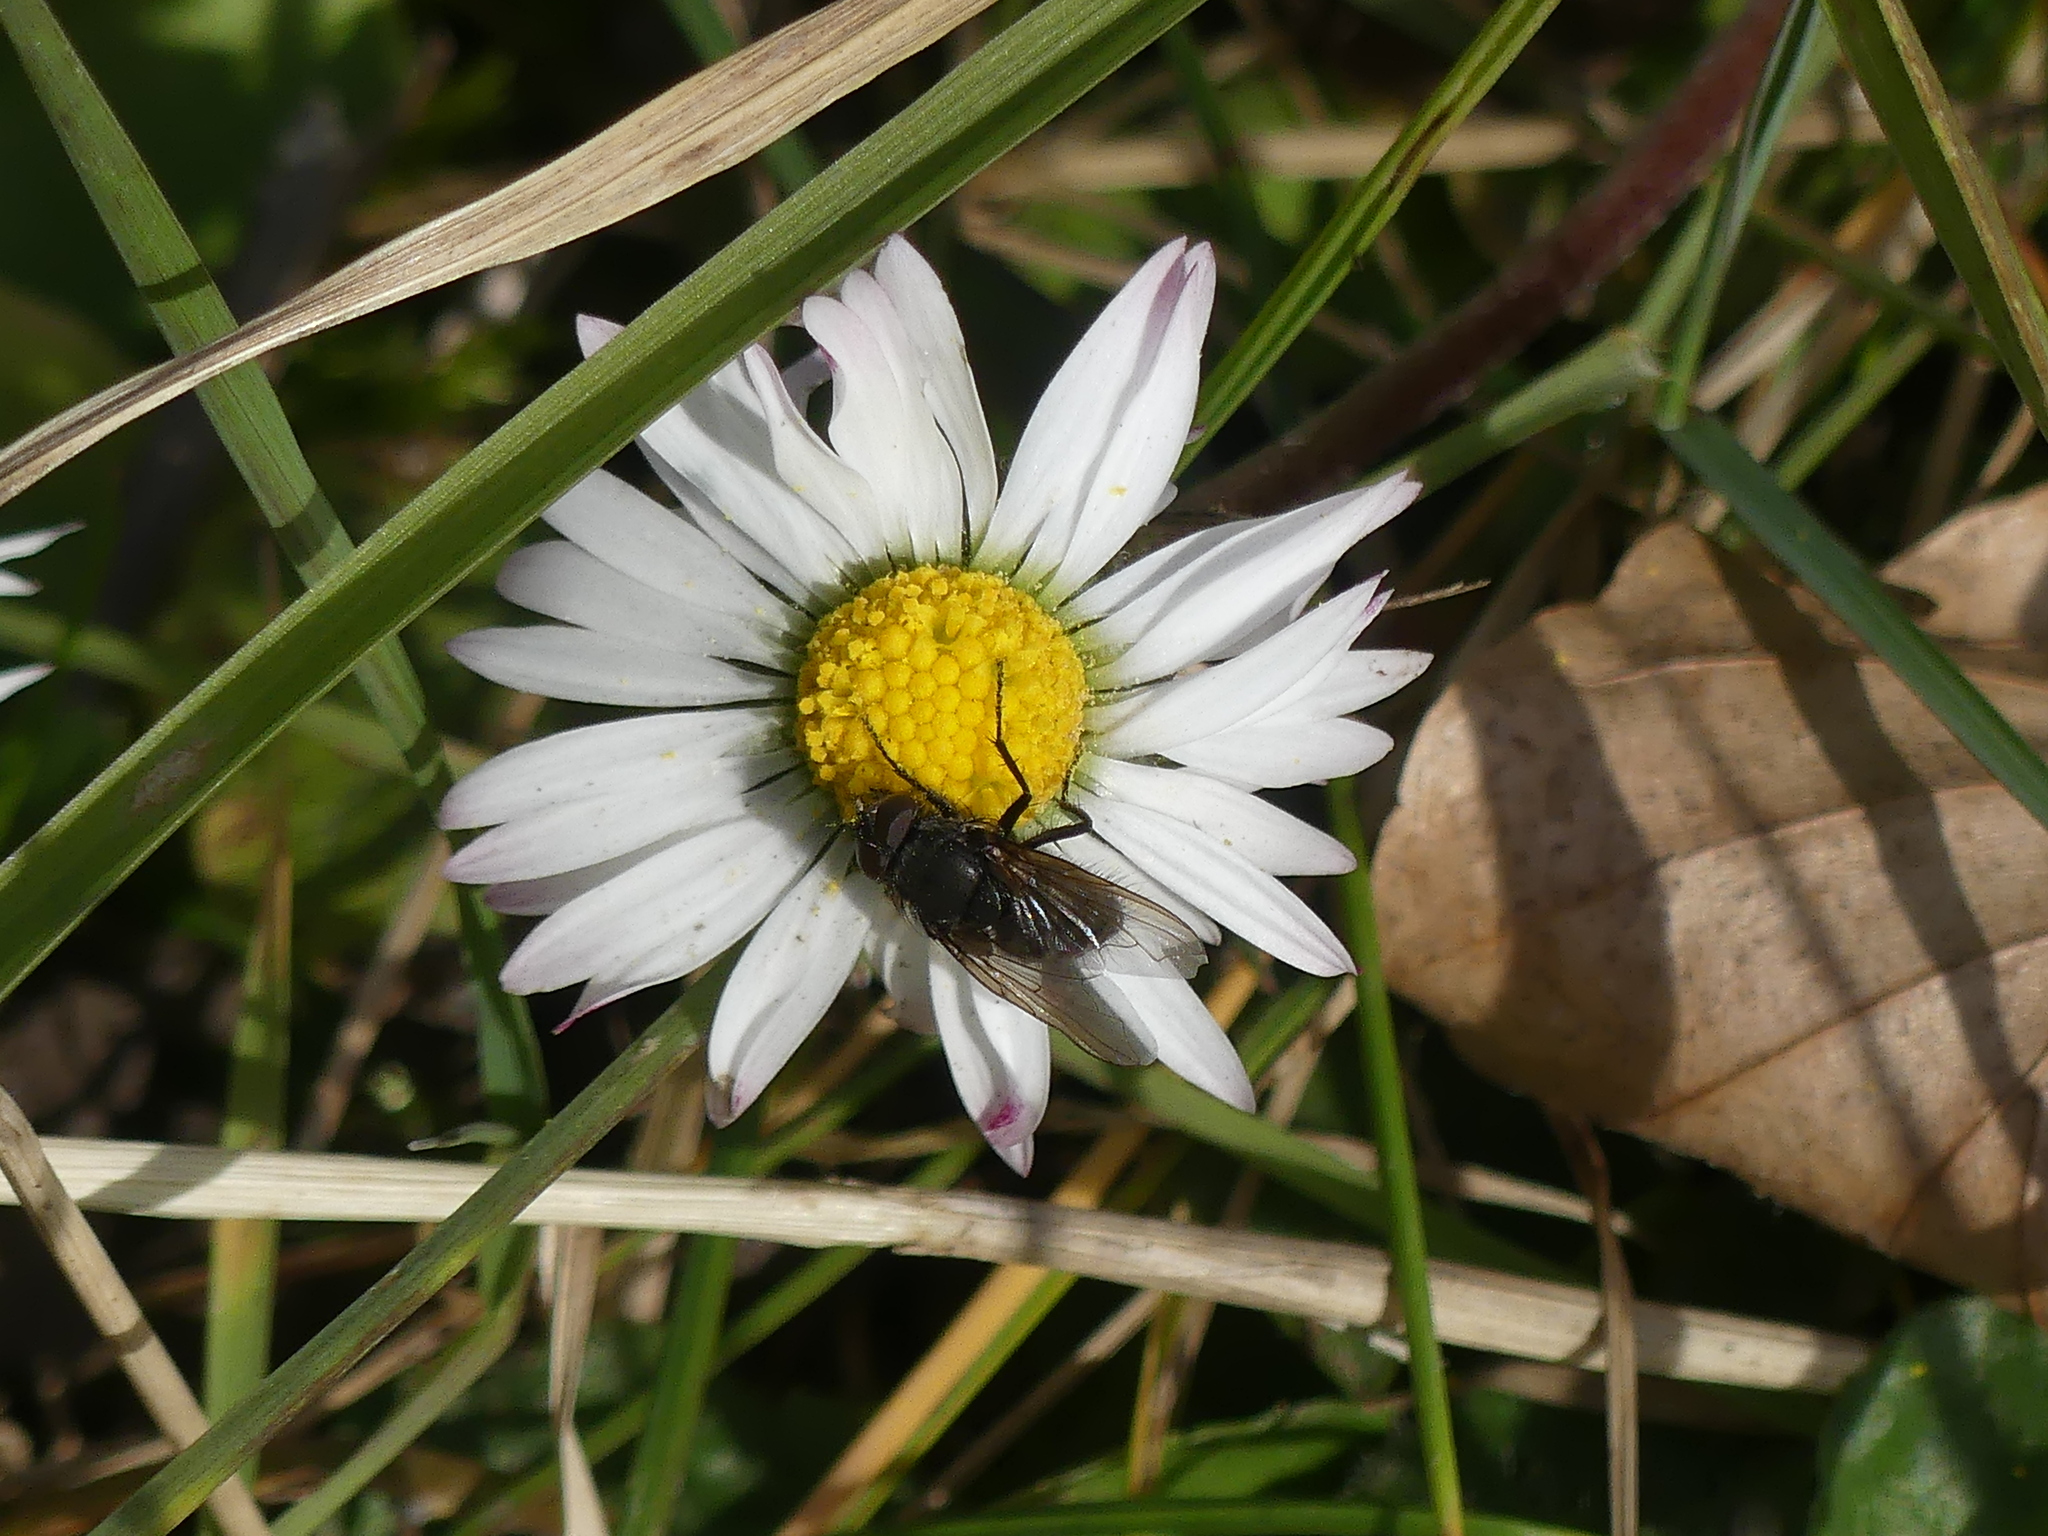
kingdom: Plantae
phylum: Tracheophyta
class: Magnoliopsida
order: Asterales
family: Asteraceae
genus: Bellis
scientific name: Bellis perennis
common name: Lawndaisy
